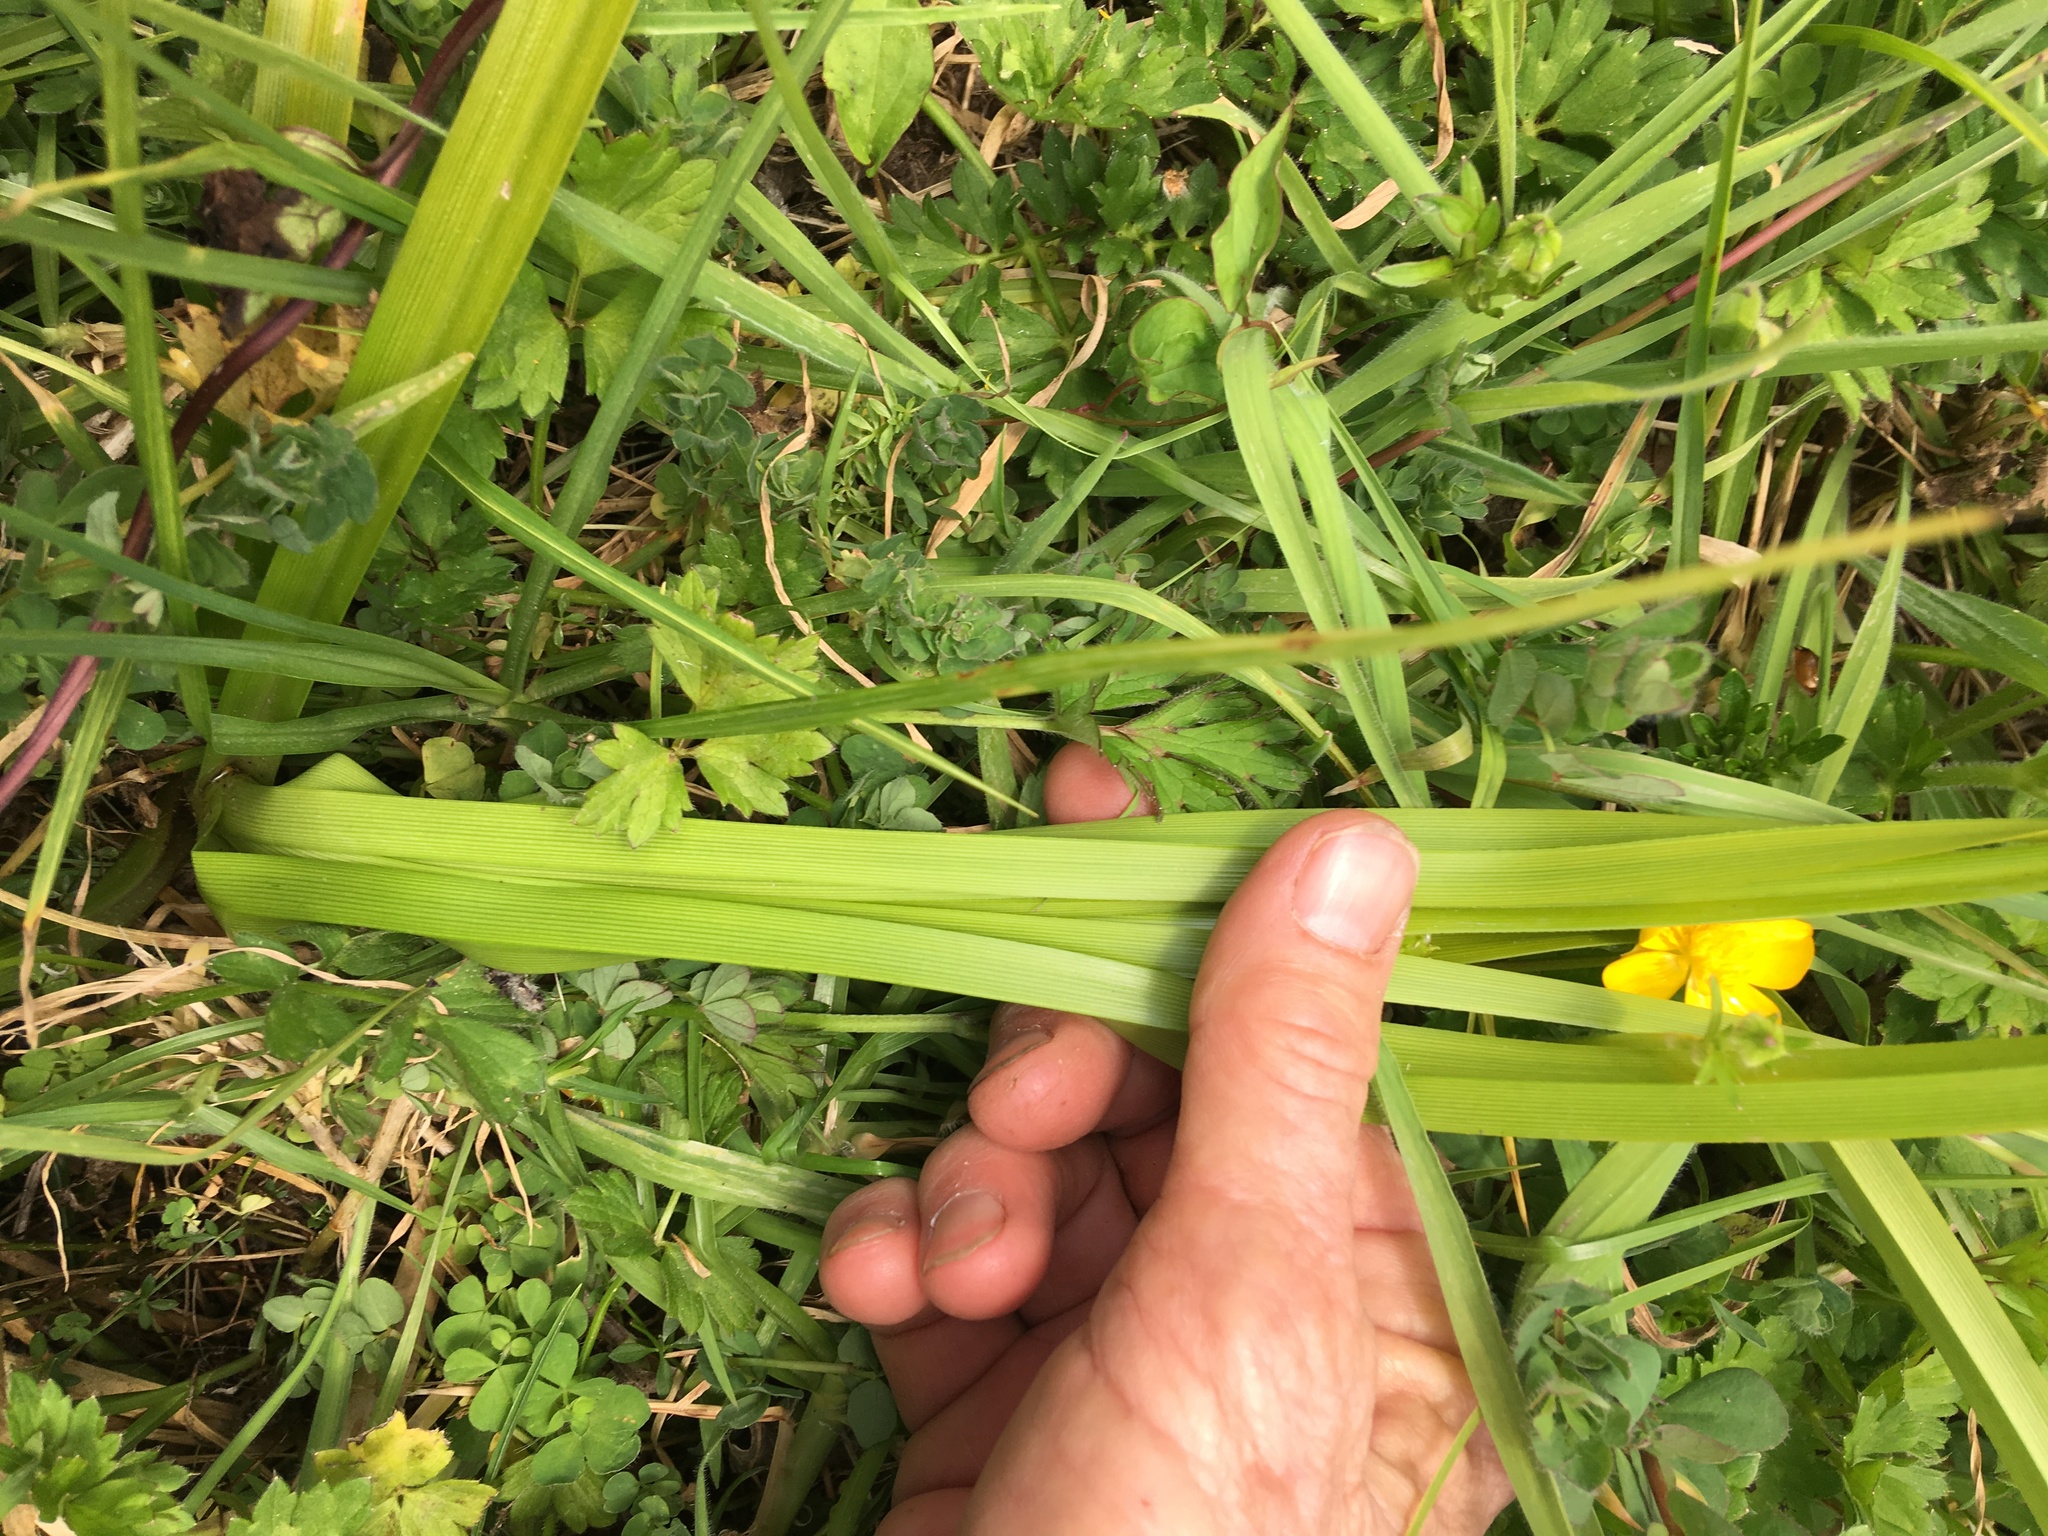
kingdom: Plantae
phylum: Tracheophyta
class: Liliopsida
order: Poales
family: Cyperaceae
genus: Cyperus
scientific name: Cyperus eragrostis
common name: Tall flatsedge
